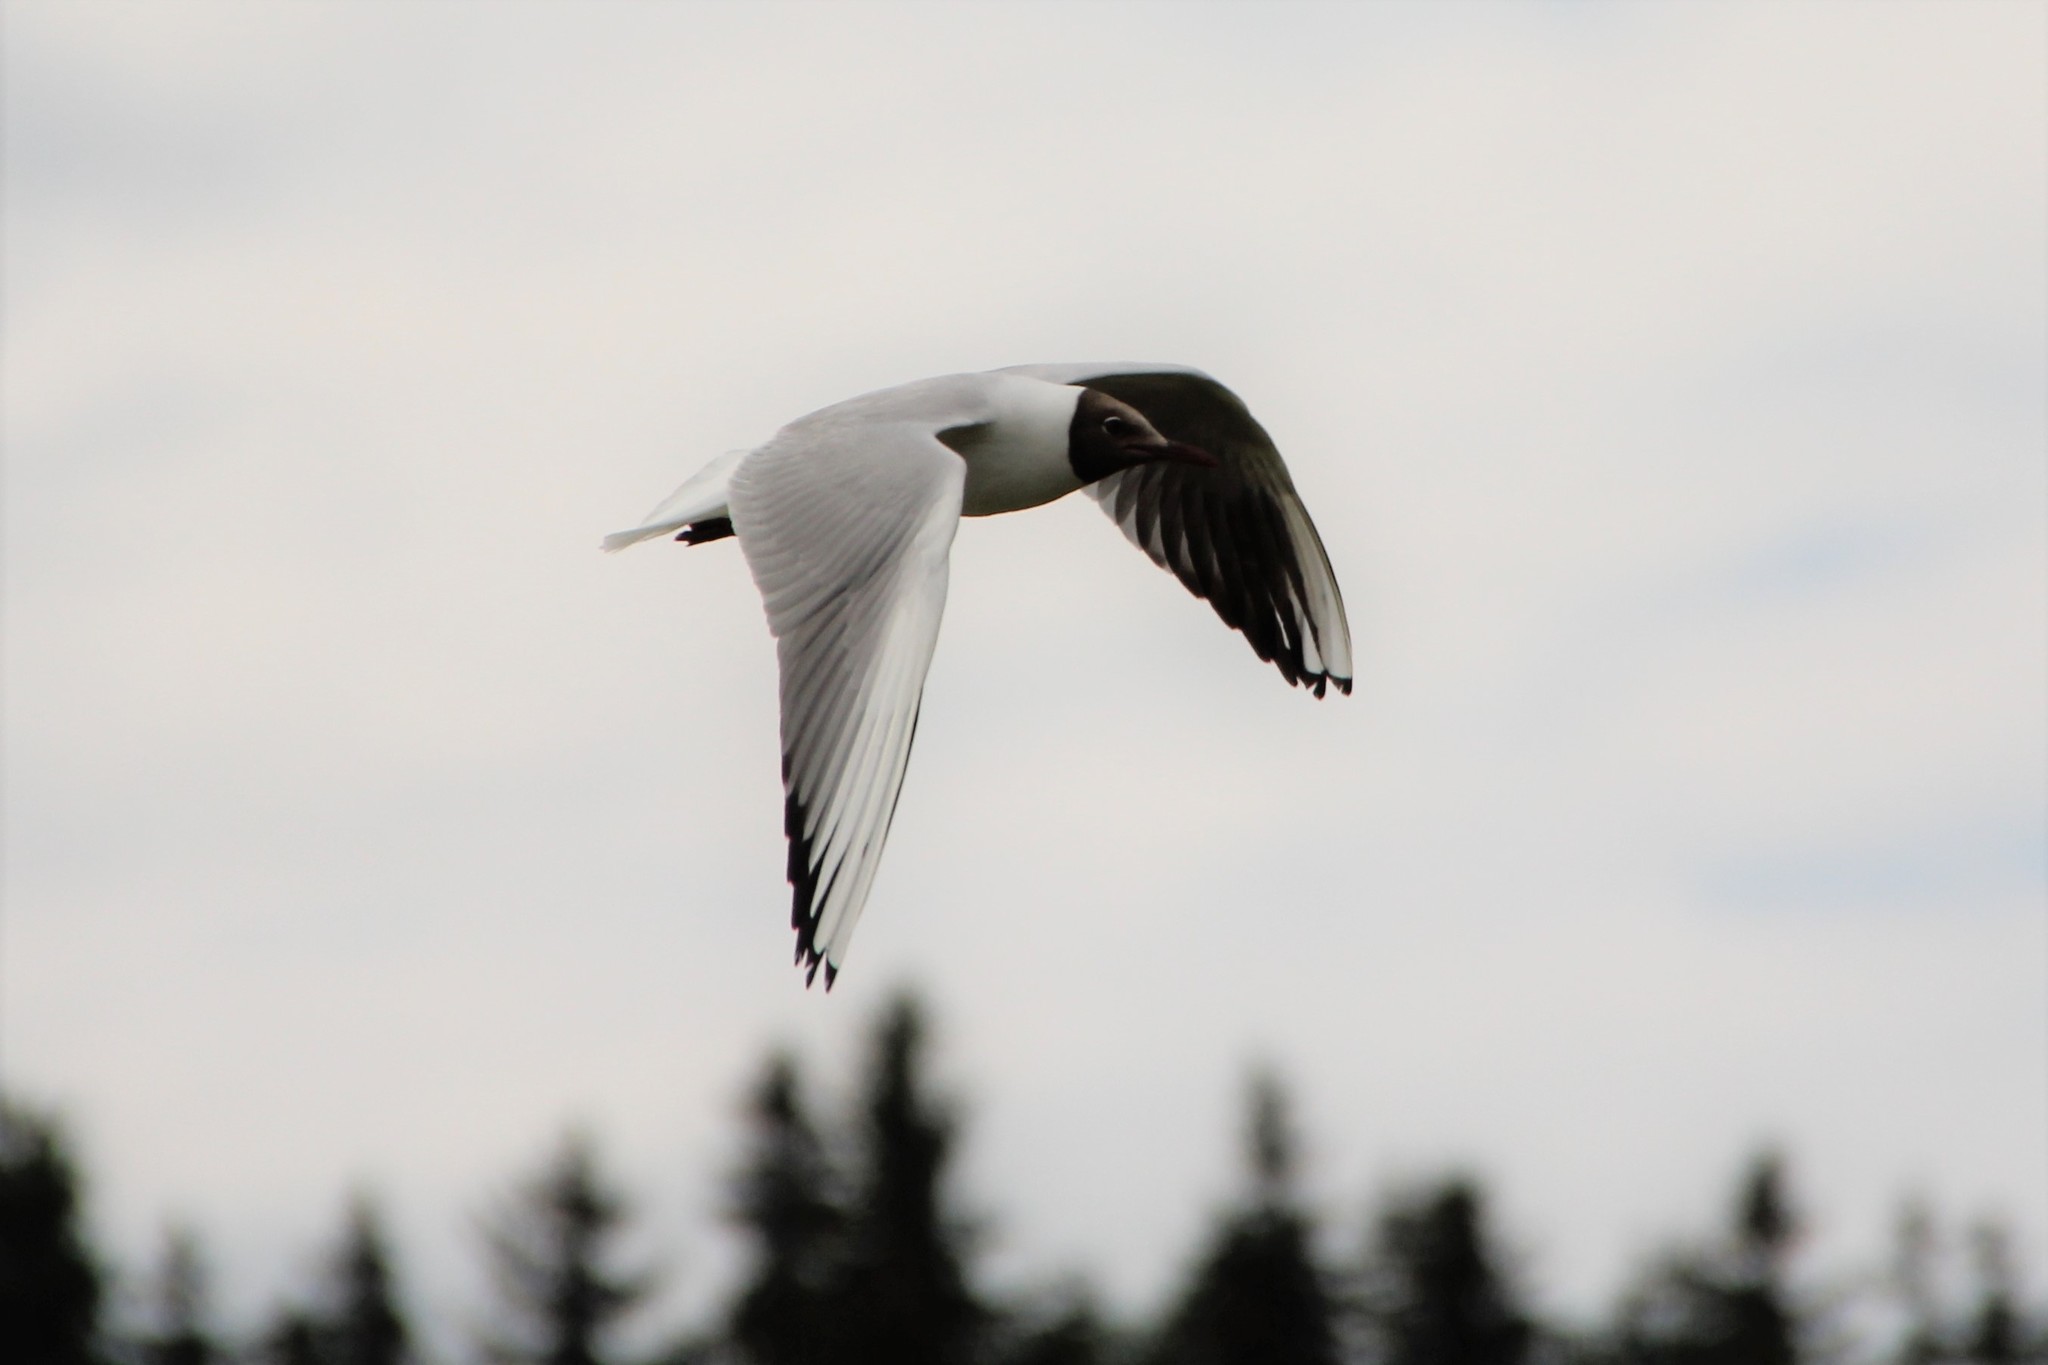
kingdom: Animalia
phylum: Chordata
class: Aves
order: Charadriiformes
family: Laridae
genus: Chroicocephalus
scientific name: Chroicocephalus ridibundus
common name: Black-headed gull
